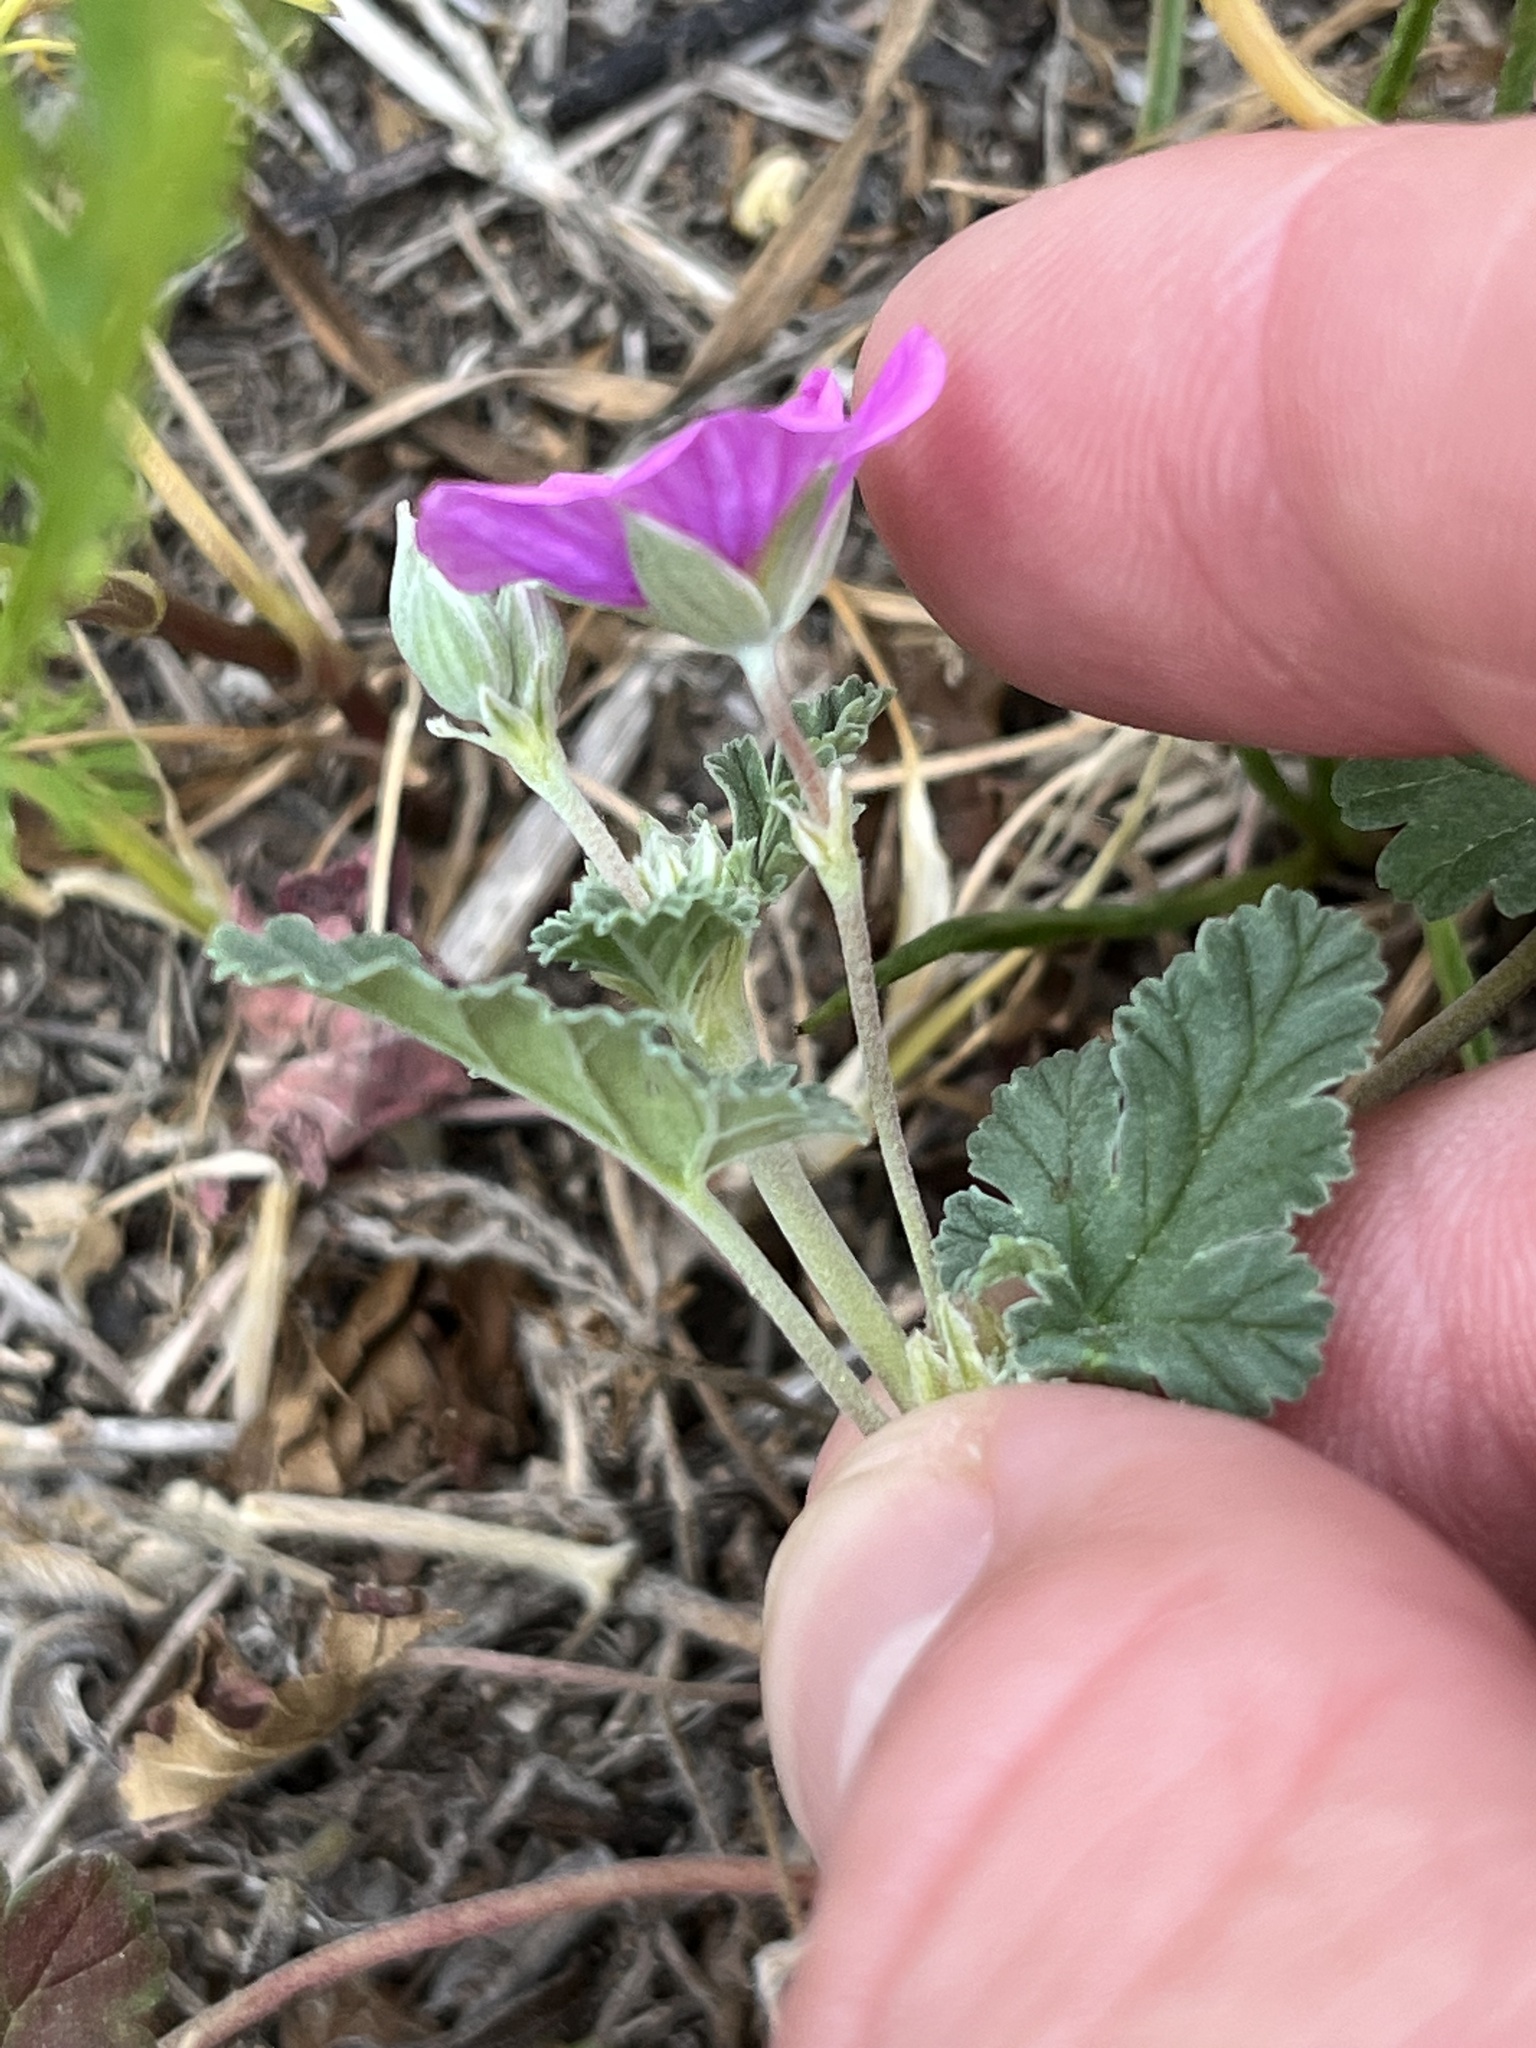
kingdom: Plantae
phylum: Tracheophyta
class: Magnoliopsida
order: Geraniales
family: Geraniaceae
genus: Erodium
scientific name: Erodium texanum
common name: Texas stork's-bill
